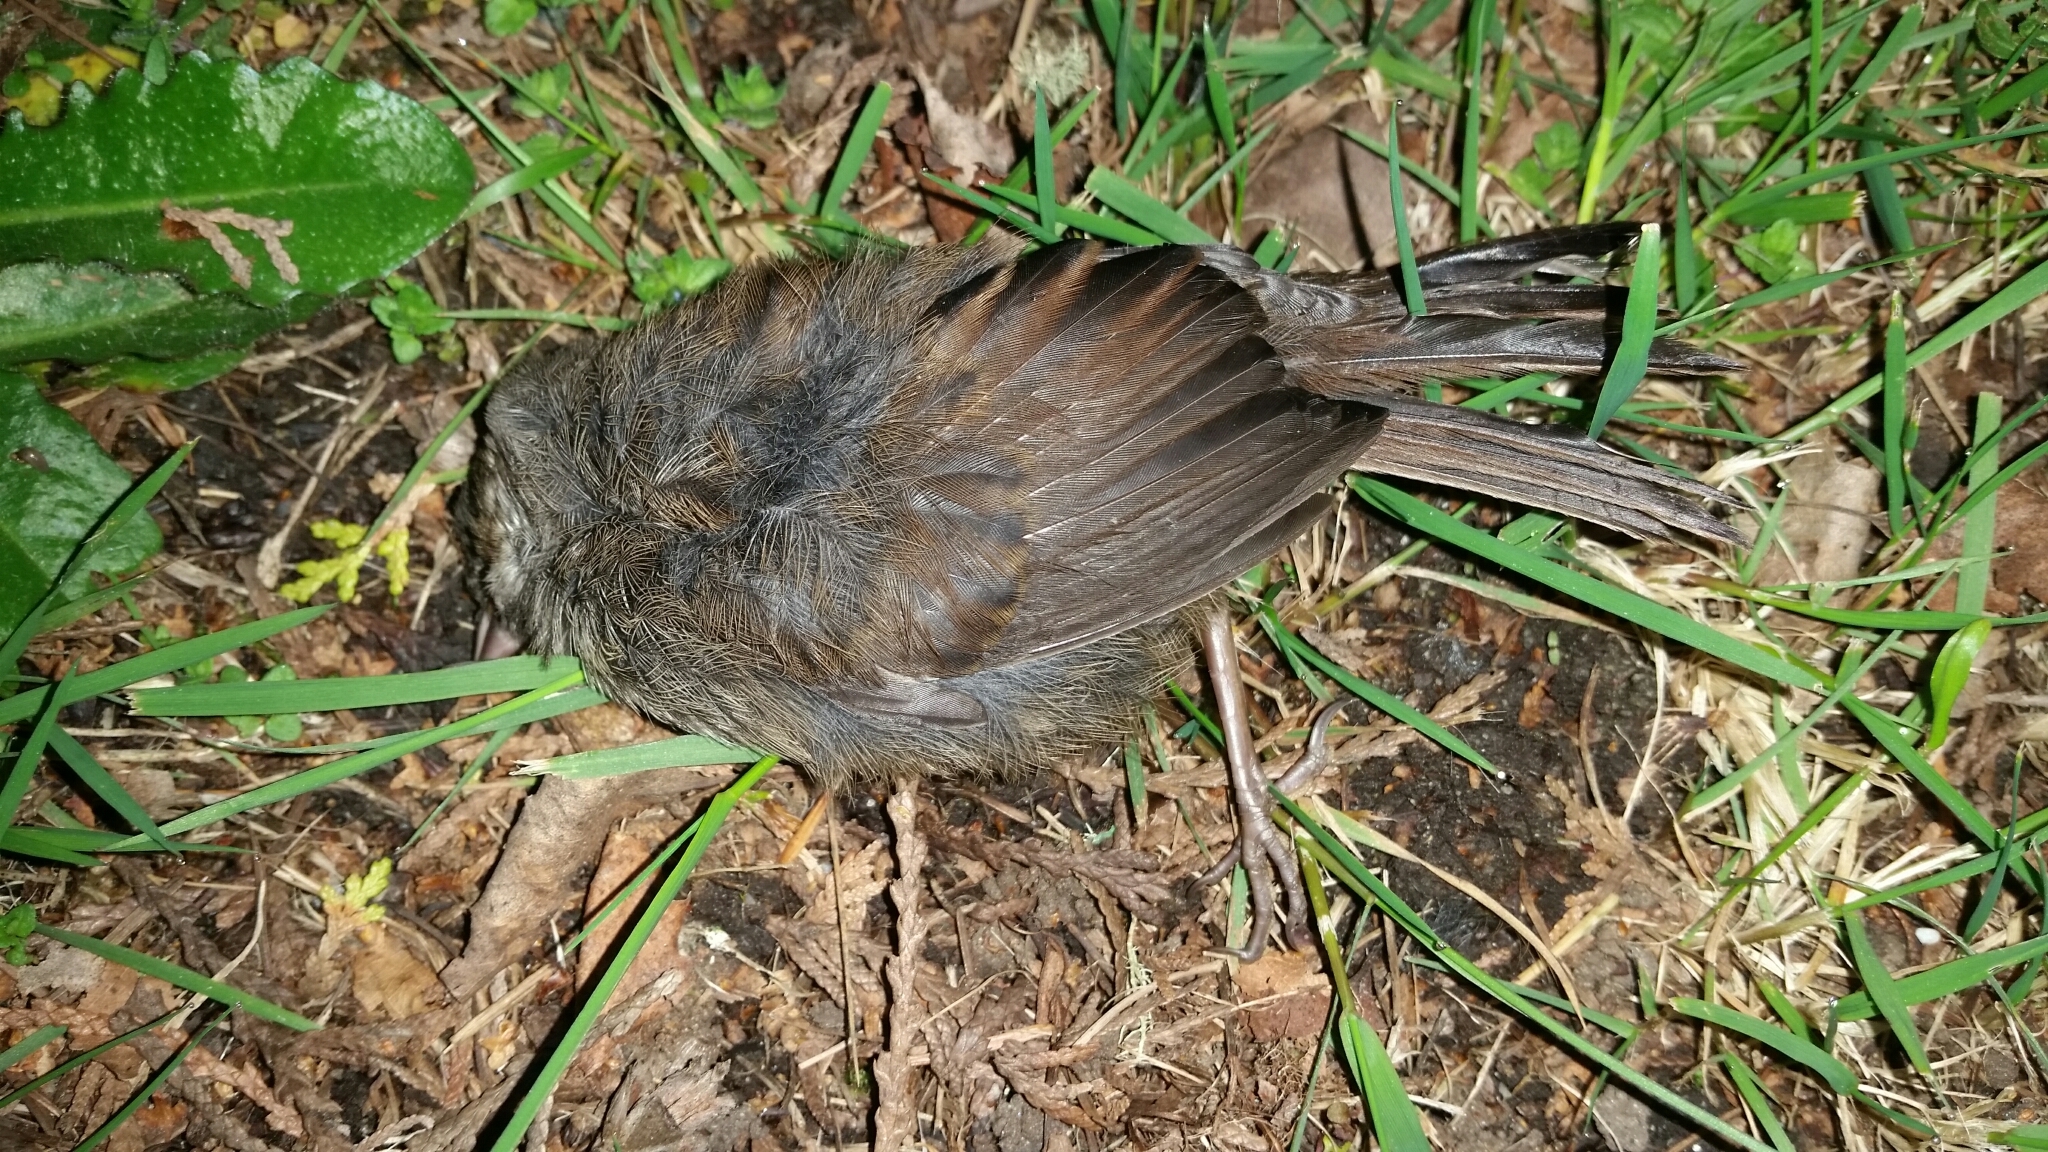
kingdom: Animalia
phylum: Chordata
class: Aves
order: Passeriformes
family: Passerellidae
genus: Melospiza
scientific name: Melospiza melodia
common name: Song sparrow
